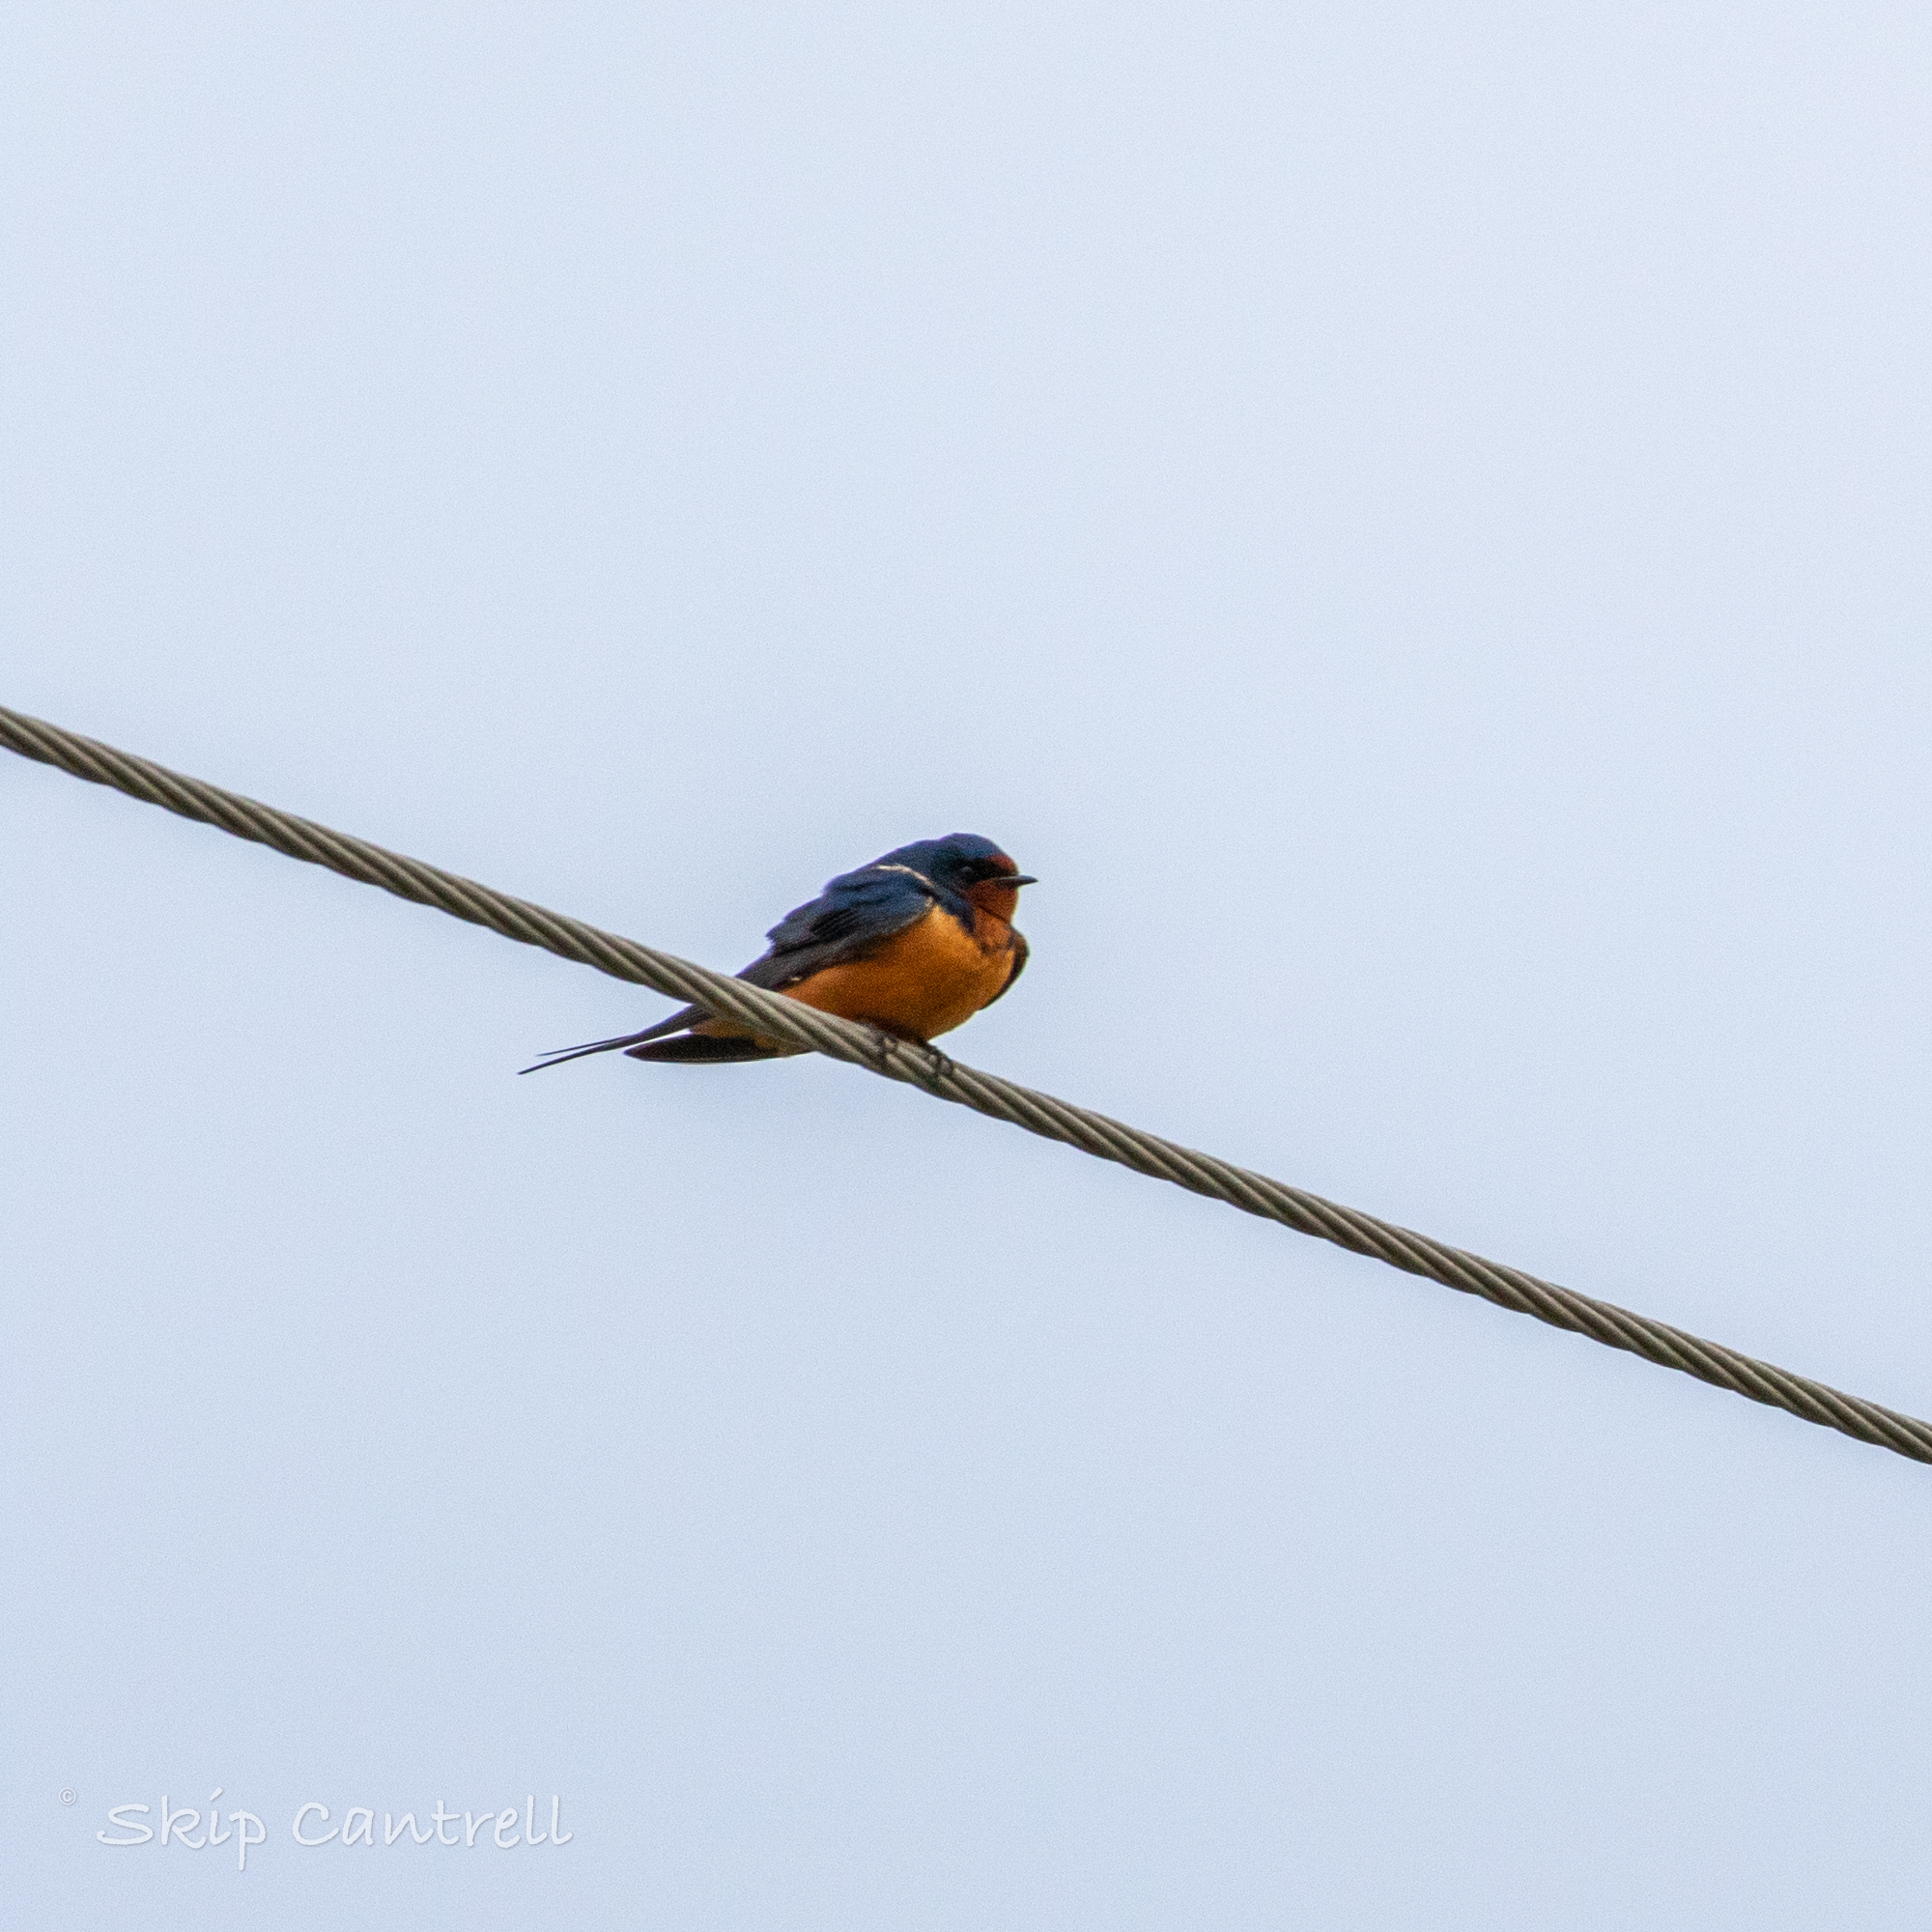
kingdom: Animalia
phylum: Chordata
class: Aves
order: Passeriformes
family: Hirundinidae
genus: Hirundo
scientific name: Hirundo rustica
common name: Barn swallow
